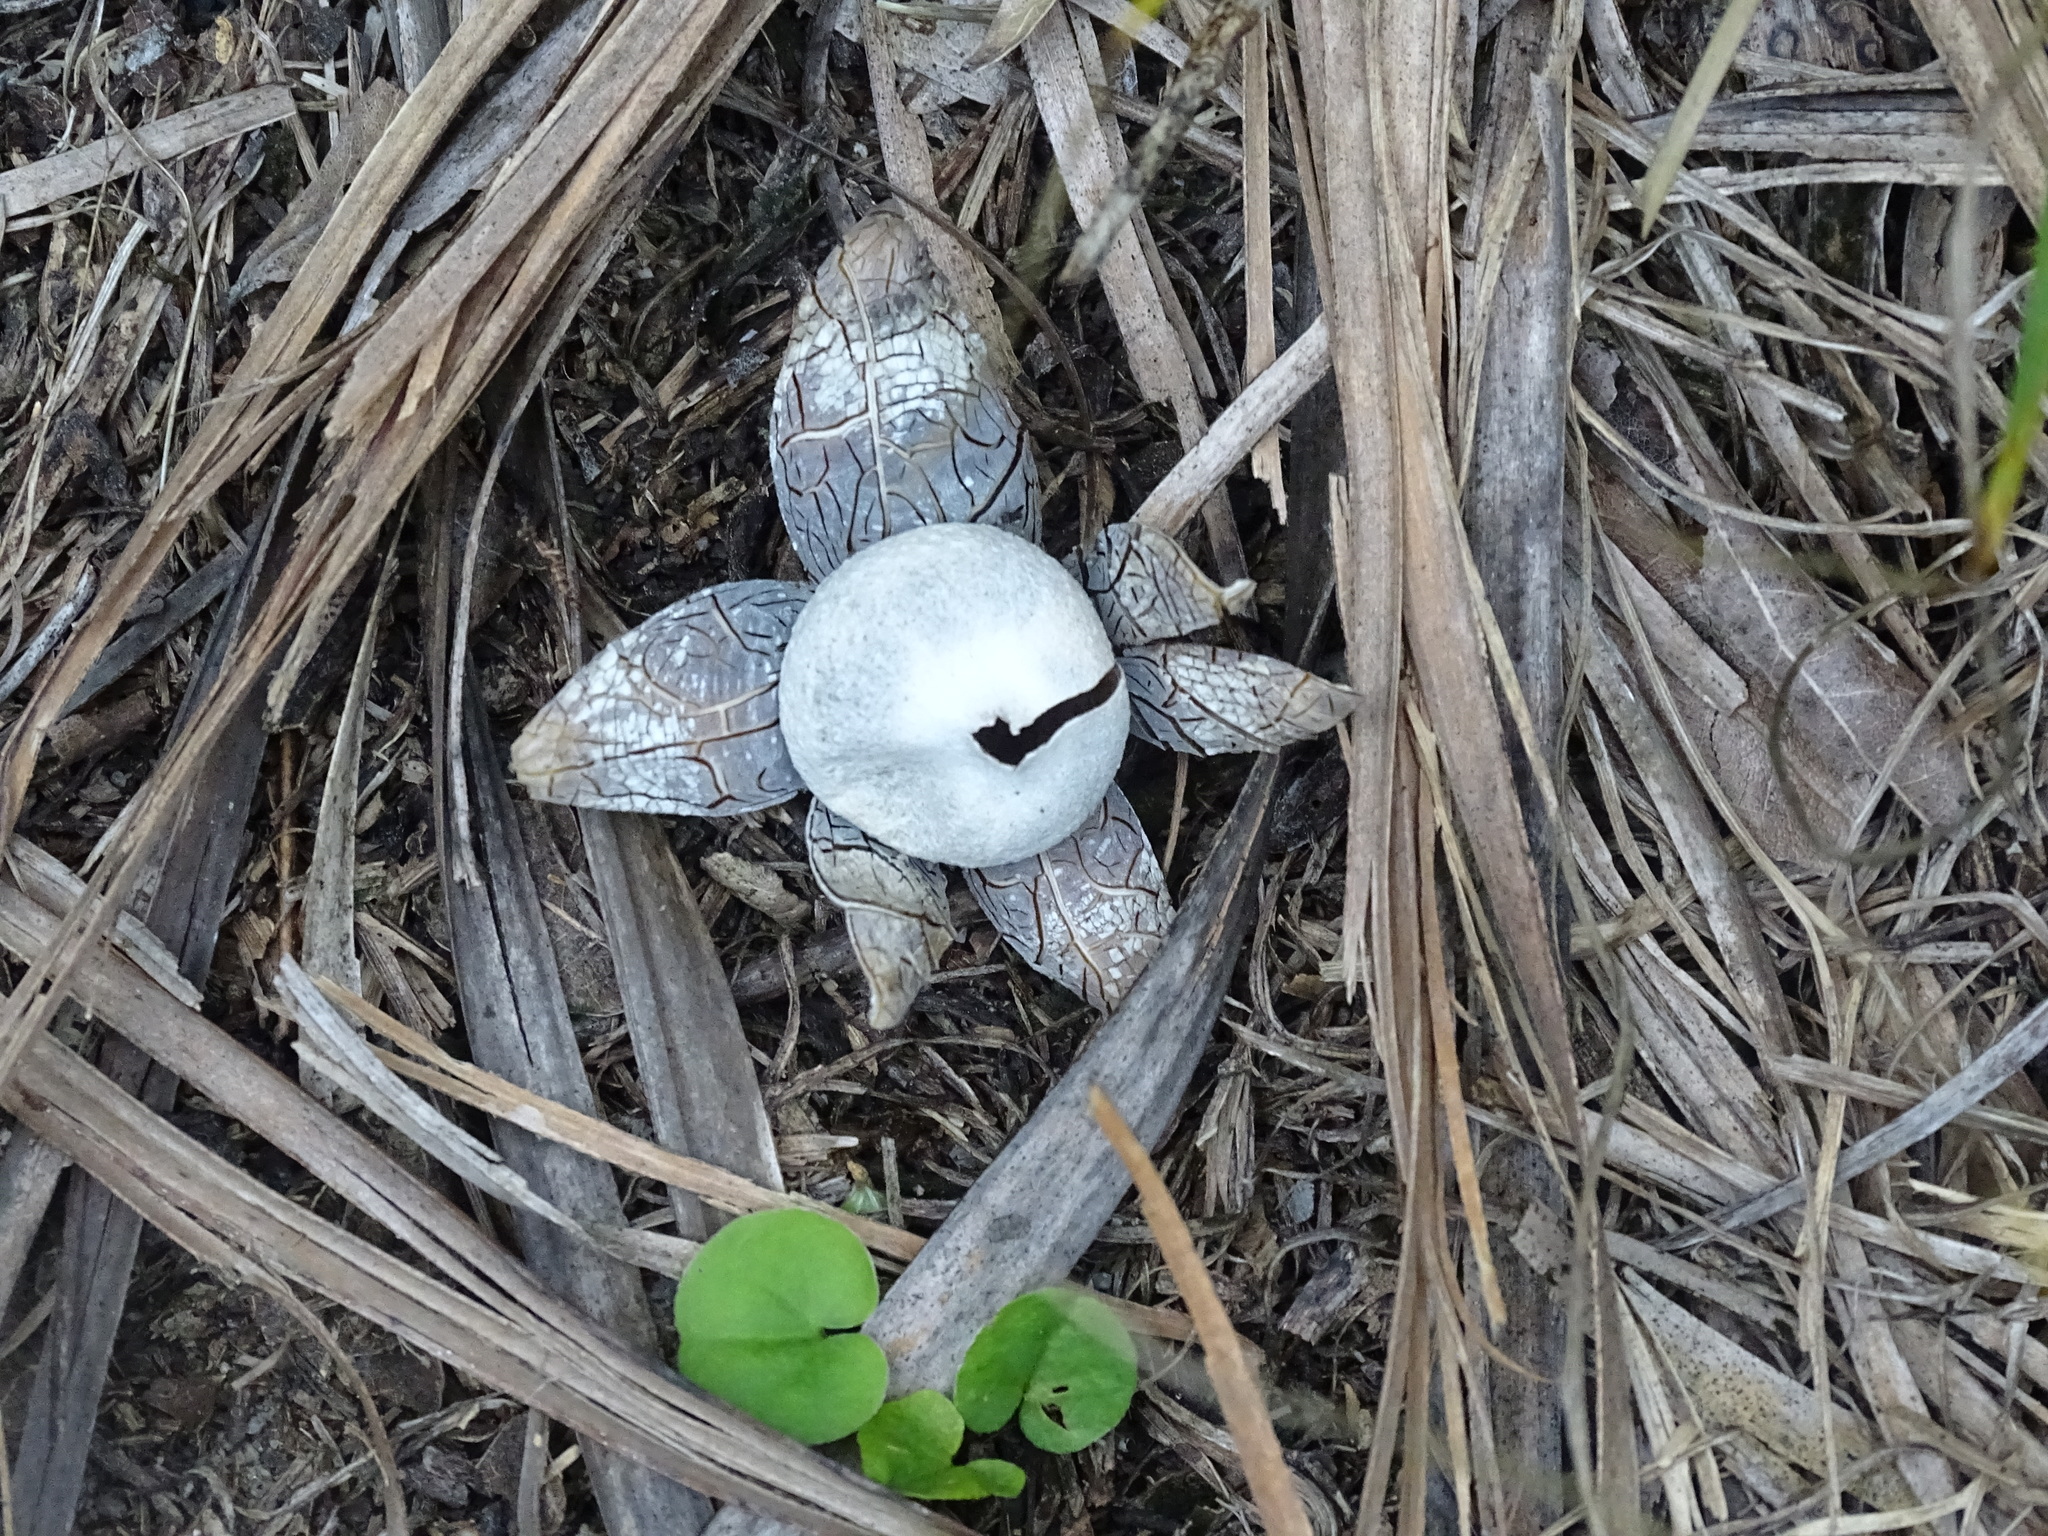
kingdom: Fungi
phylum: Basidiomycota
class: Agaricomycetes
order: Boletales
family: Diplocystidiaceae
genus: Astraeus
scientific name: Astraeus hygrometricus
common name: Barometer earthstar
